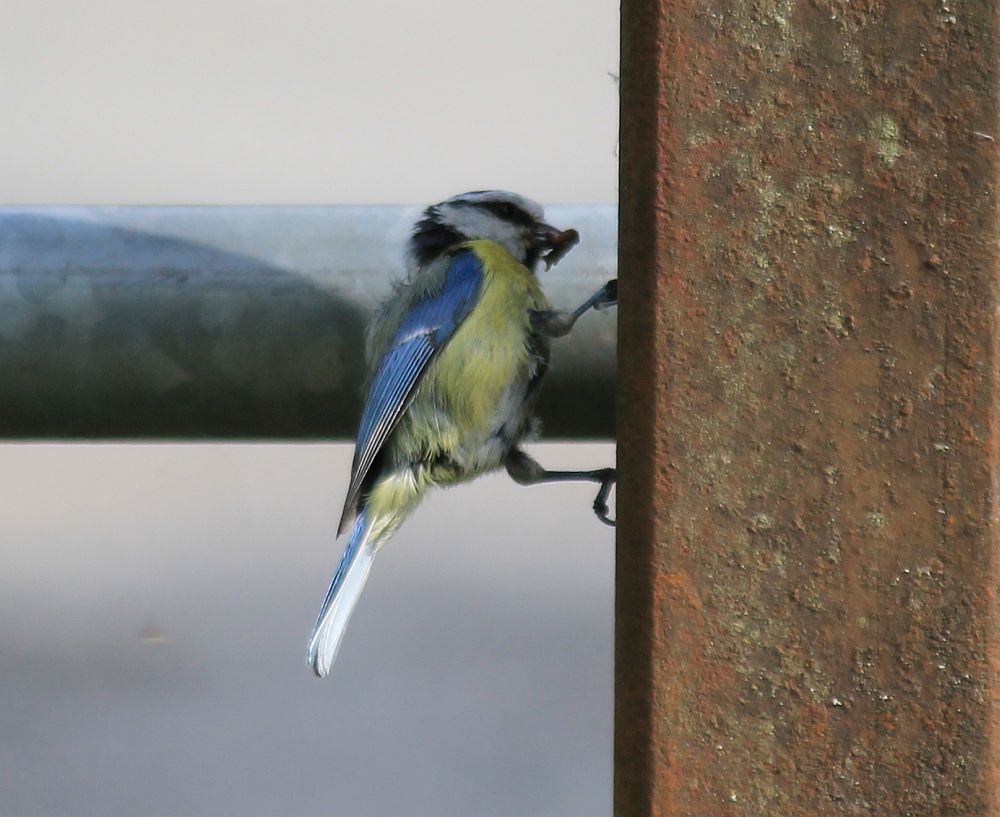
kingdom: Animalia
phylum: Chordata
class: Aves
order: Passeriformes
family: Paridae
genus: Cyanistes
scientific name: Cyanistes caeruleus
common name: Eurasian blue tit
